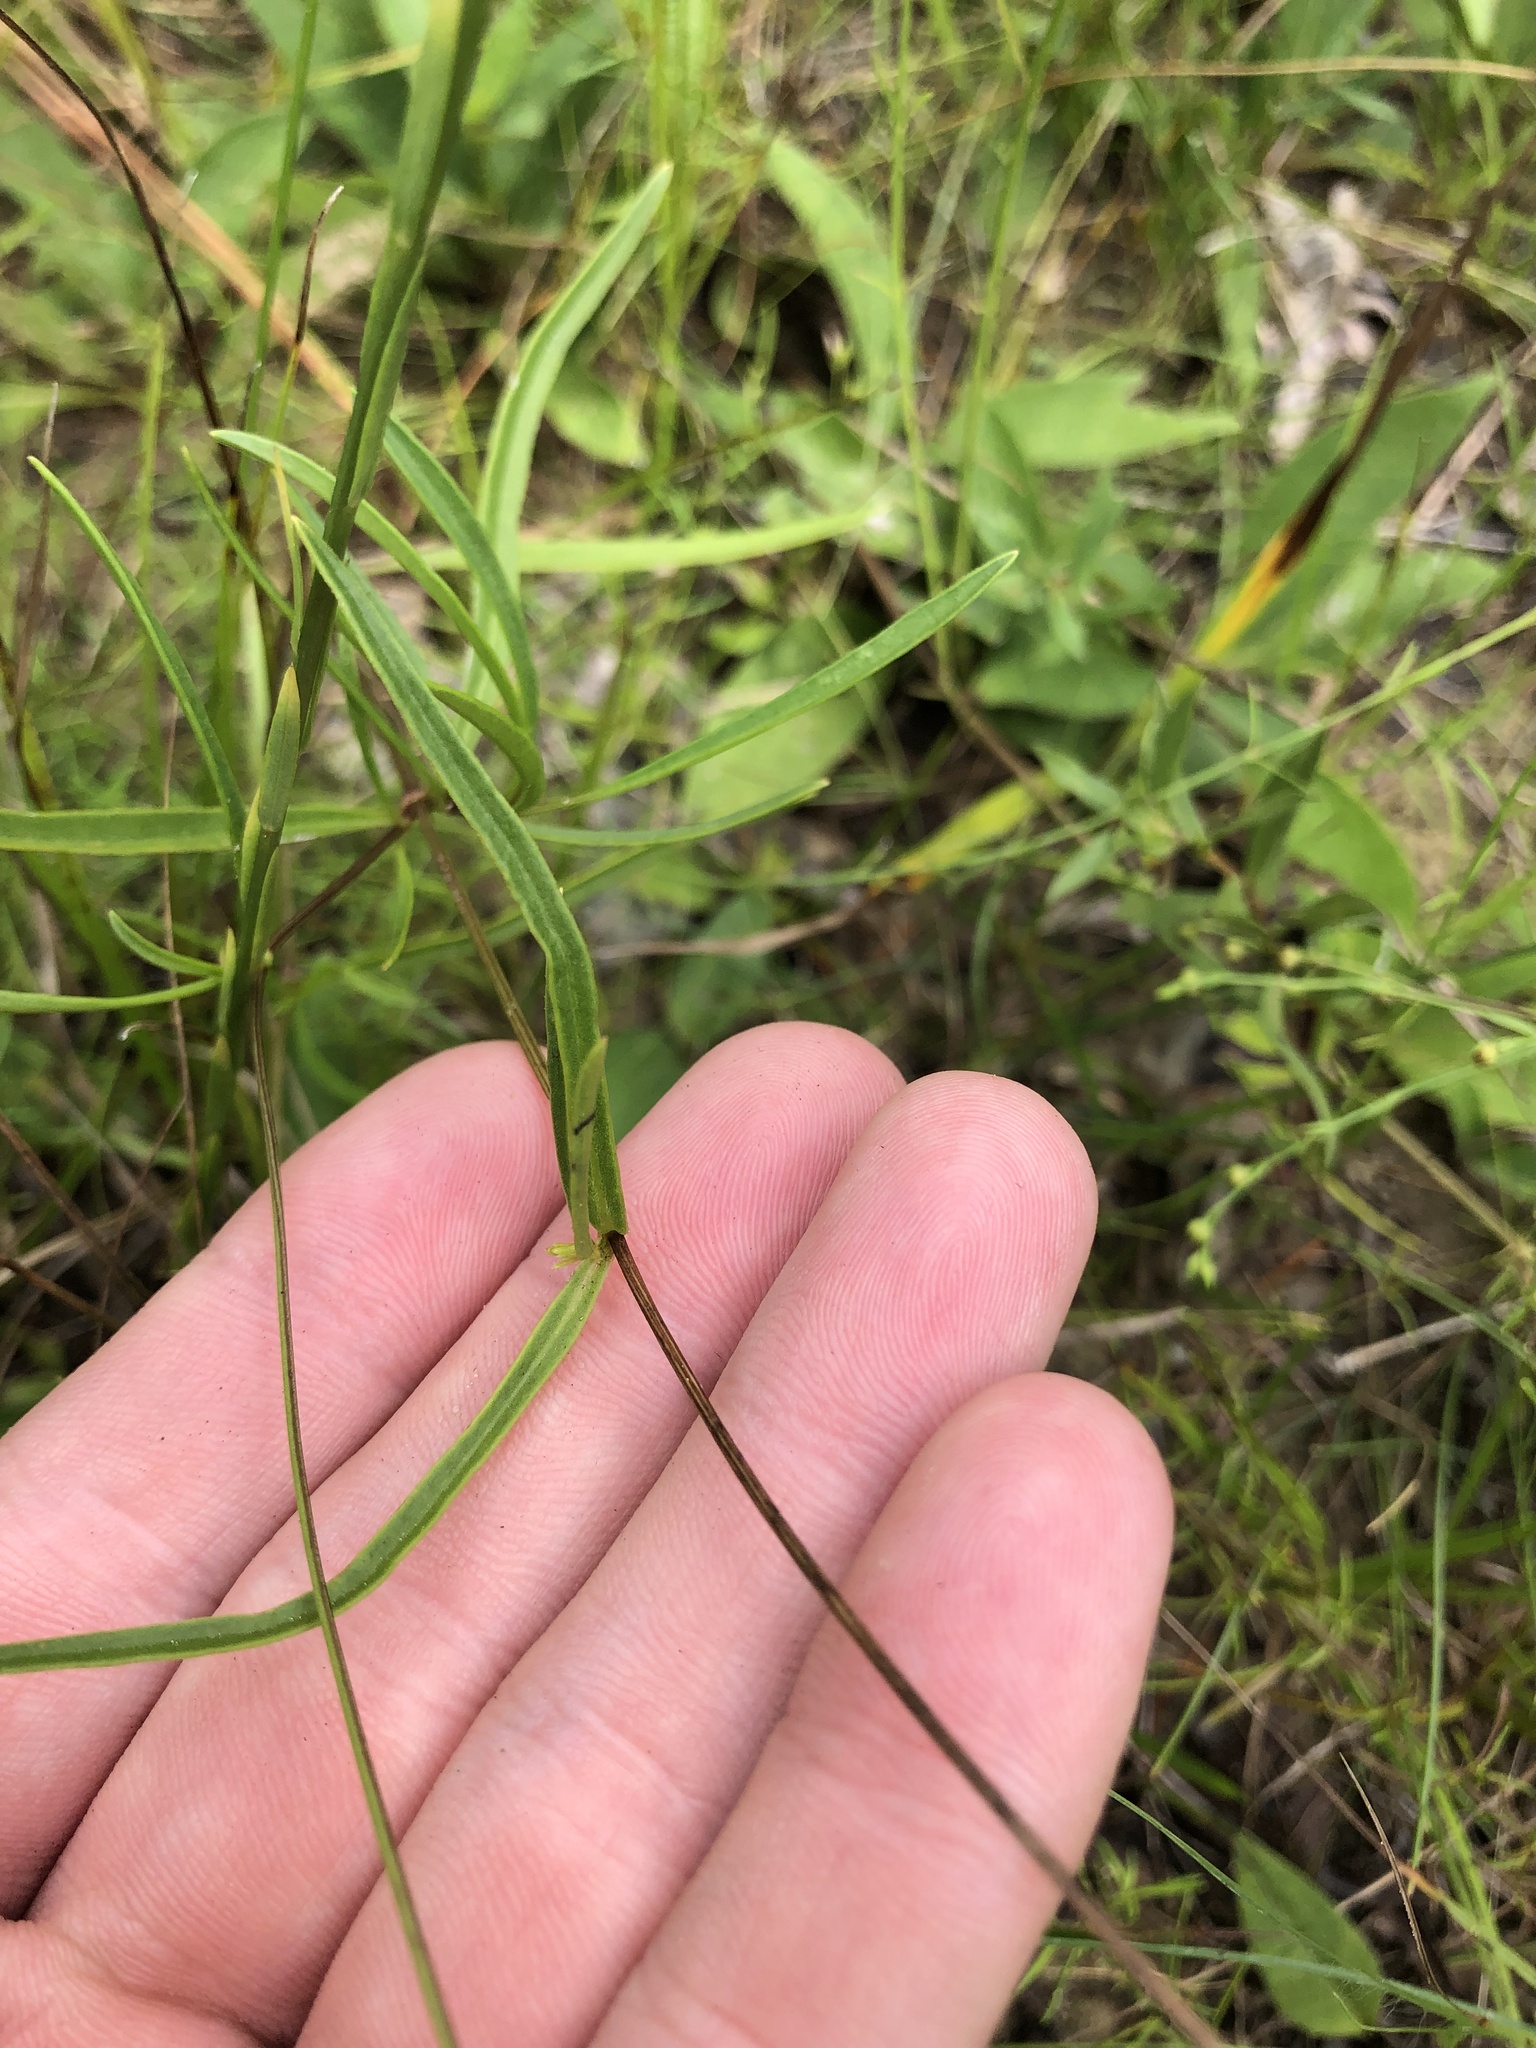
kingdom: Plantae
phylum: Tracheophyta
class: Magnoliopsida
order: Asterales
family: Asteraceae
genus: Coreopsis
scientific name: Coreopsis grandiflora
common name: Large-flowered tickseed
